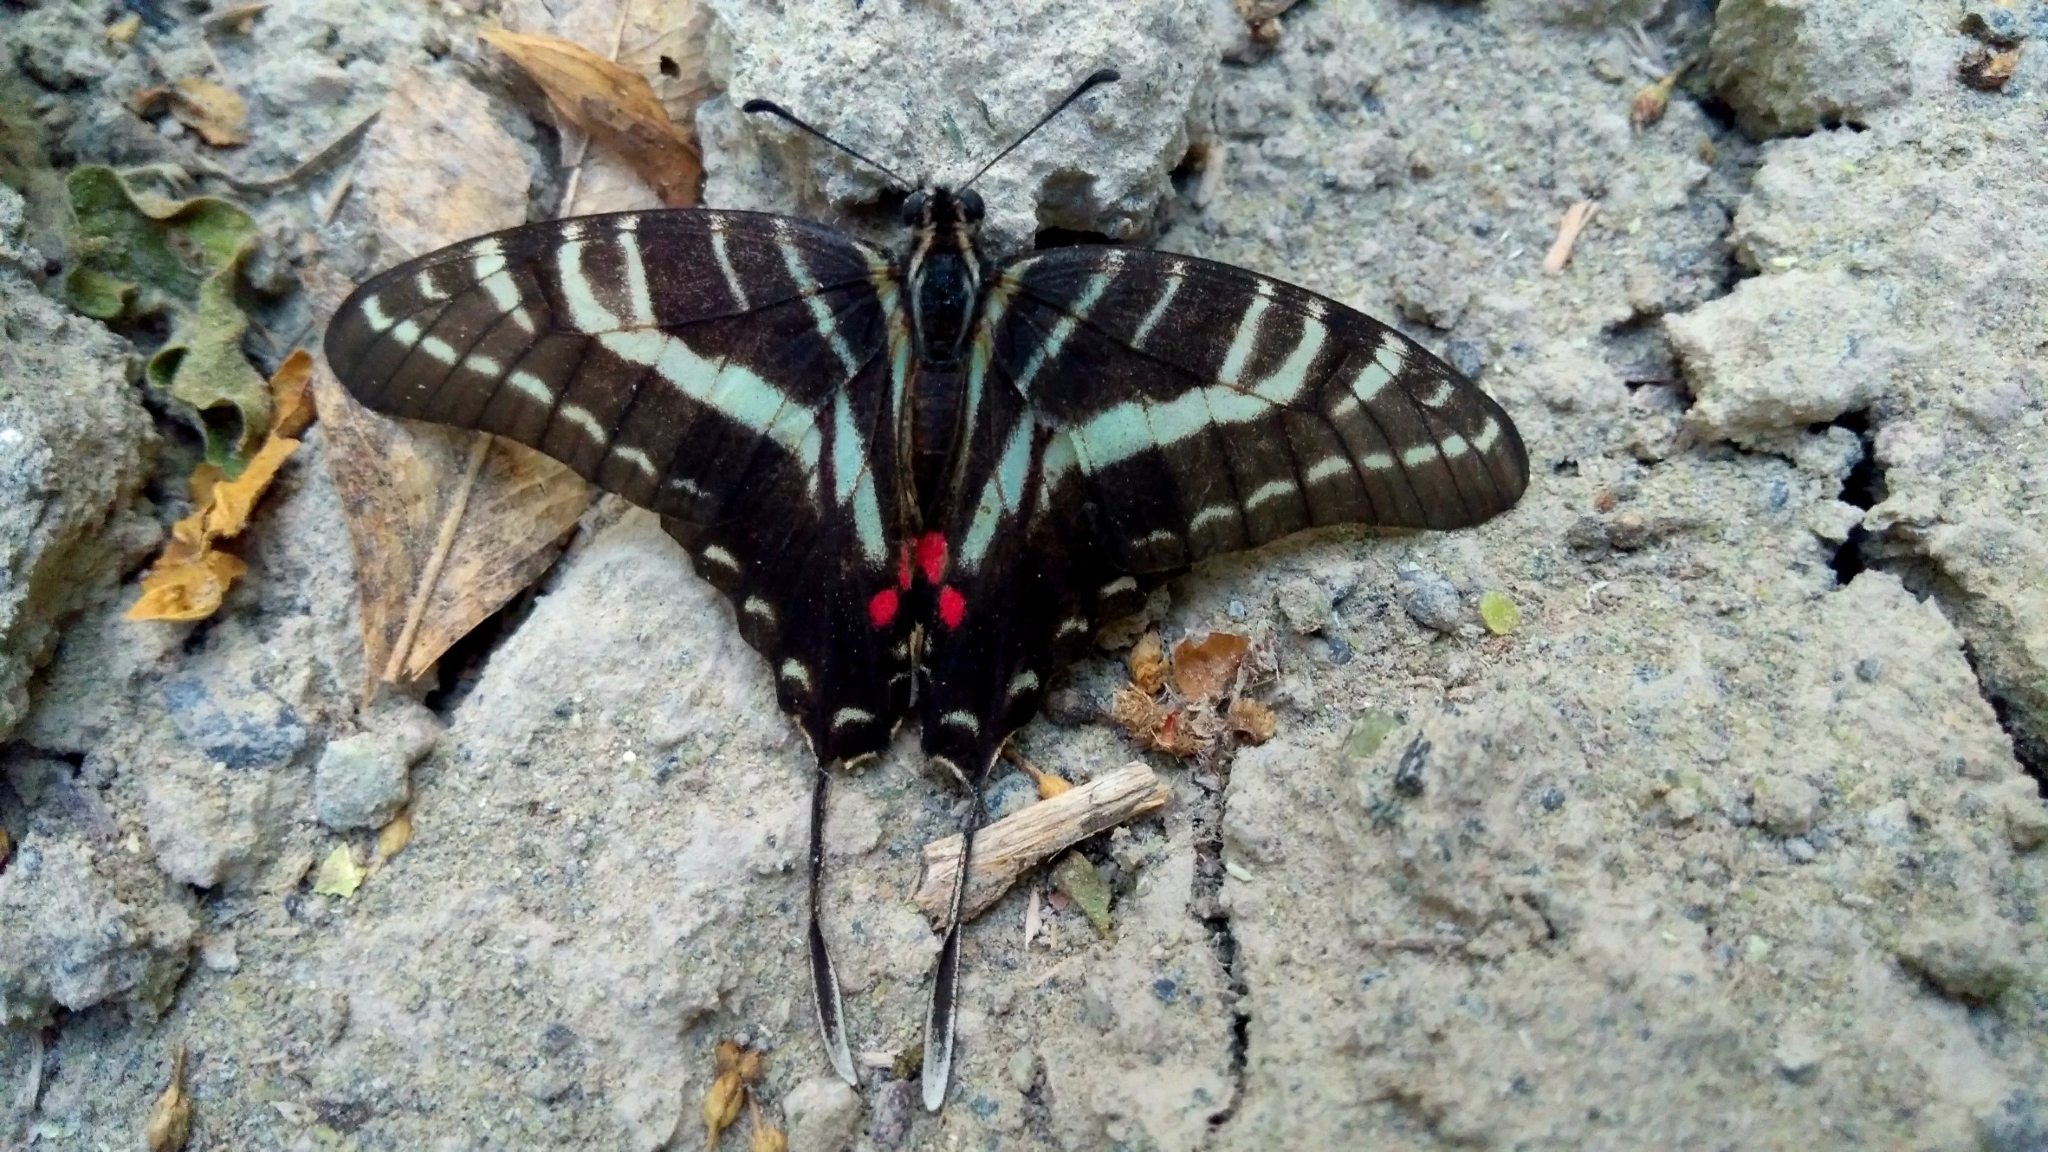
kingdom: Animalia
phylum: Arthropoda
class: Insecta
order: Lepidoptera
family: Papilionidae
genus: Protographium
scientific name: Protographium philolaus
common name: Dark zebra swallowtail
